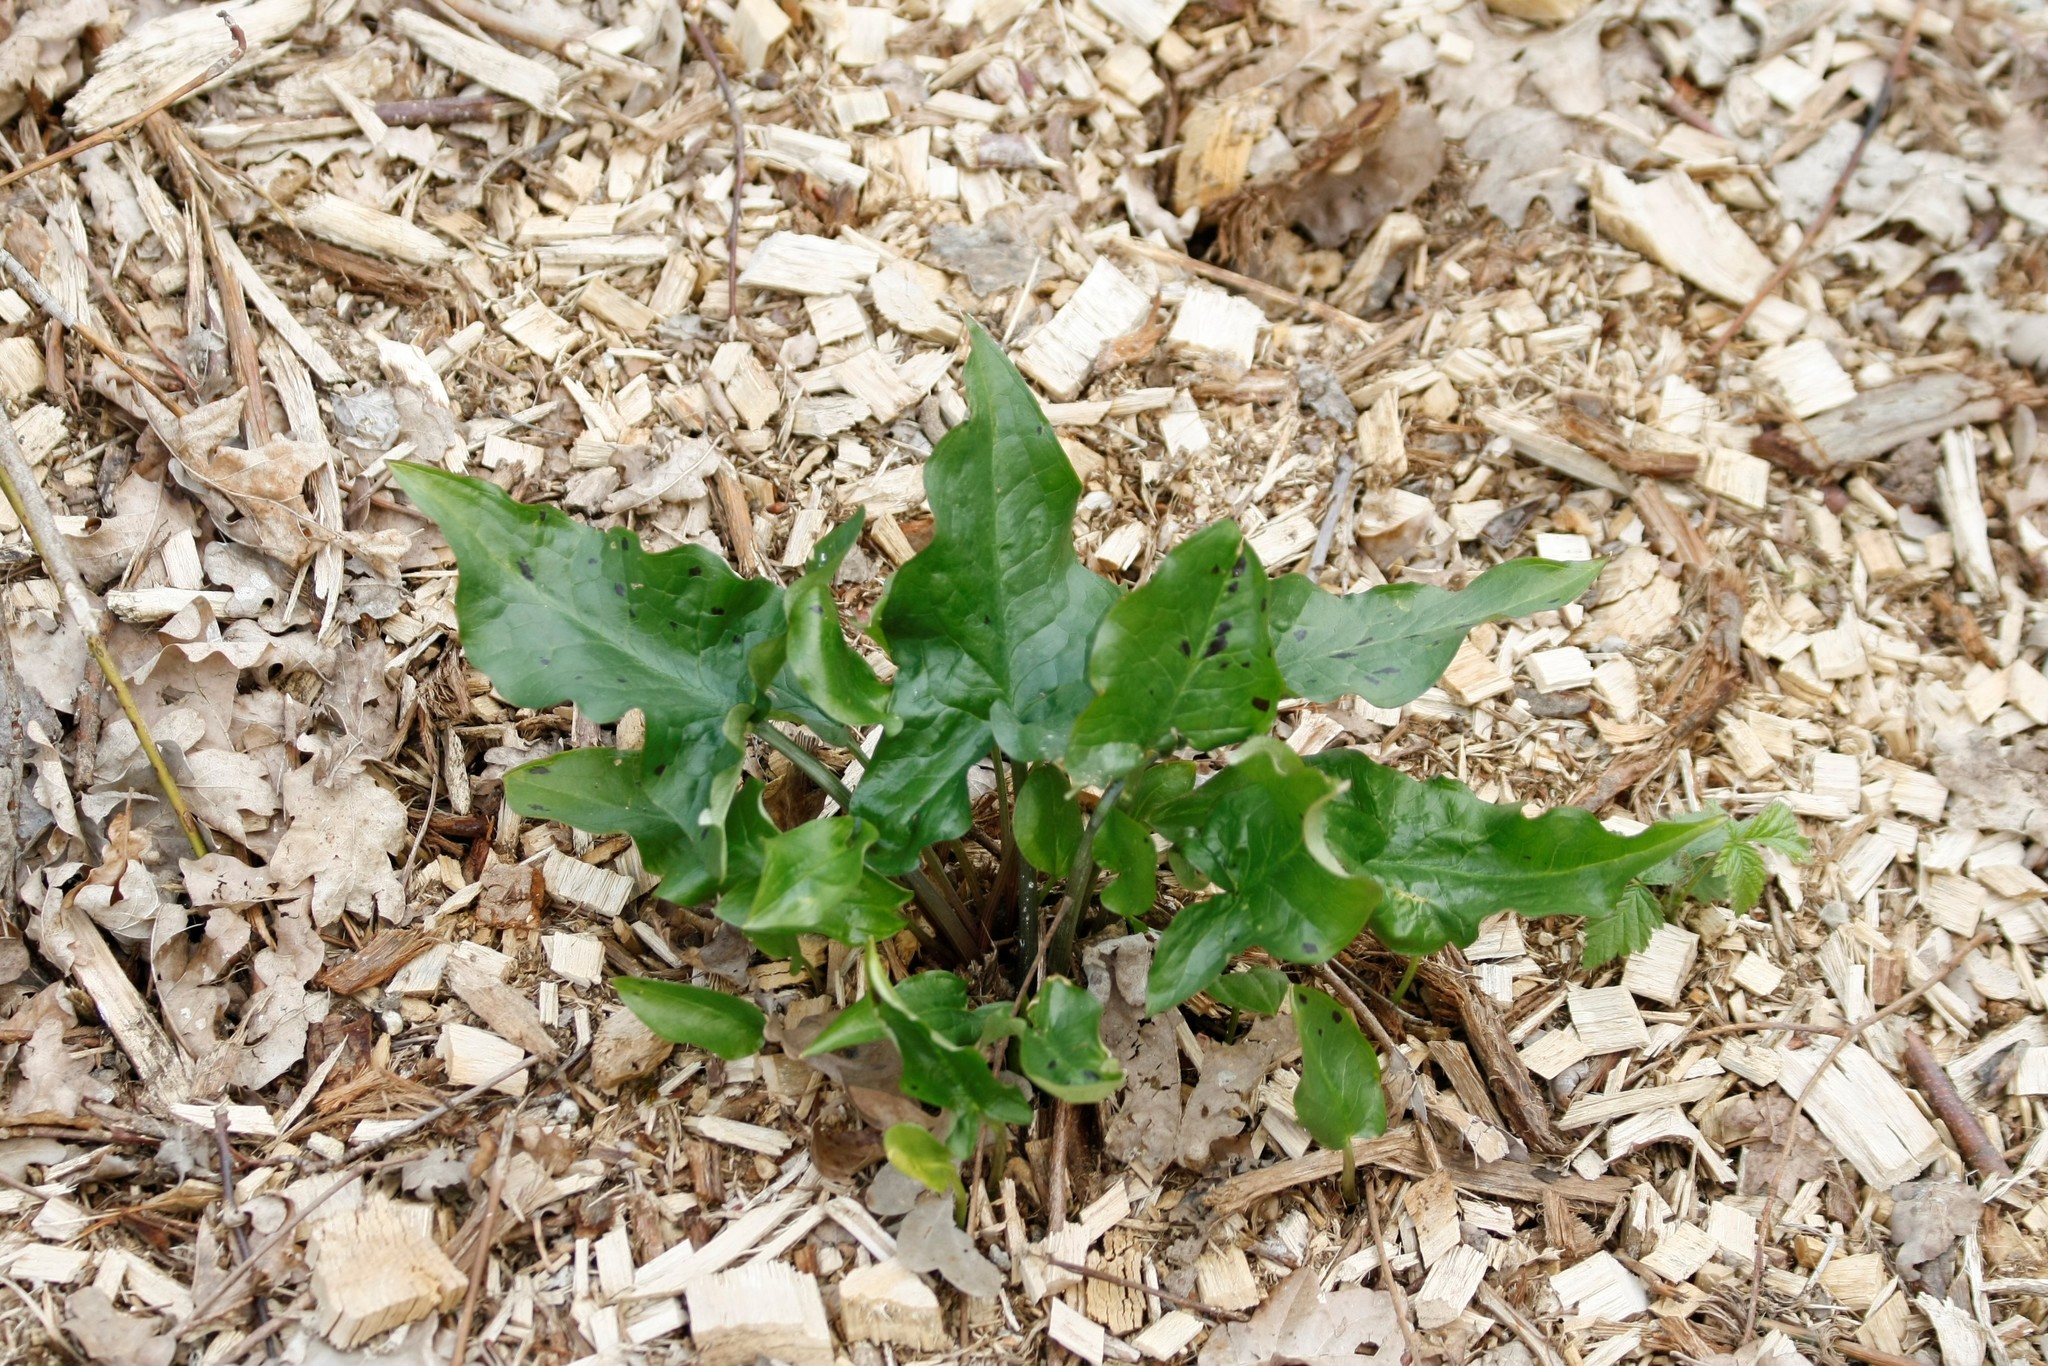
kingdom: Plantae
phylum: Tracheophyta
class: Liliopsida
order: Alismatales
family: Araceae
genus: Arum
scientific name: Arum maculatum
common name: Lords-and-ladies
